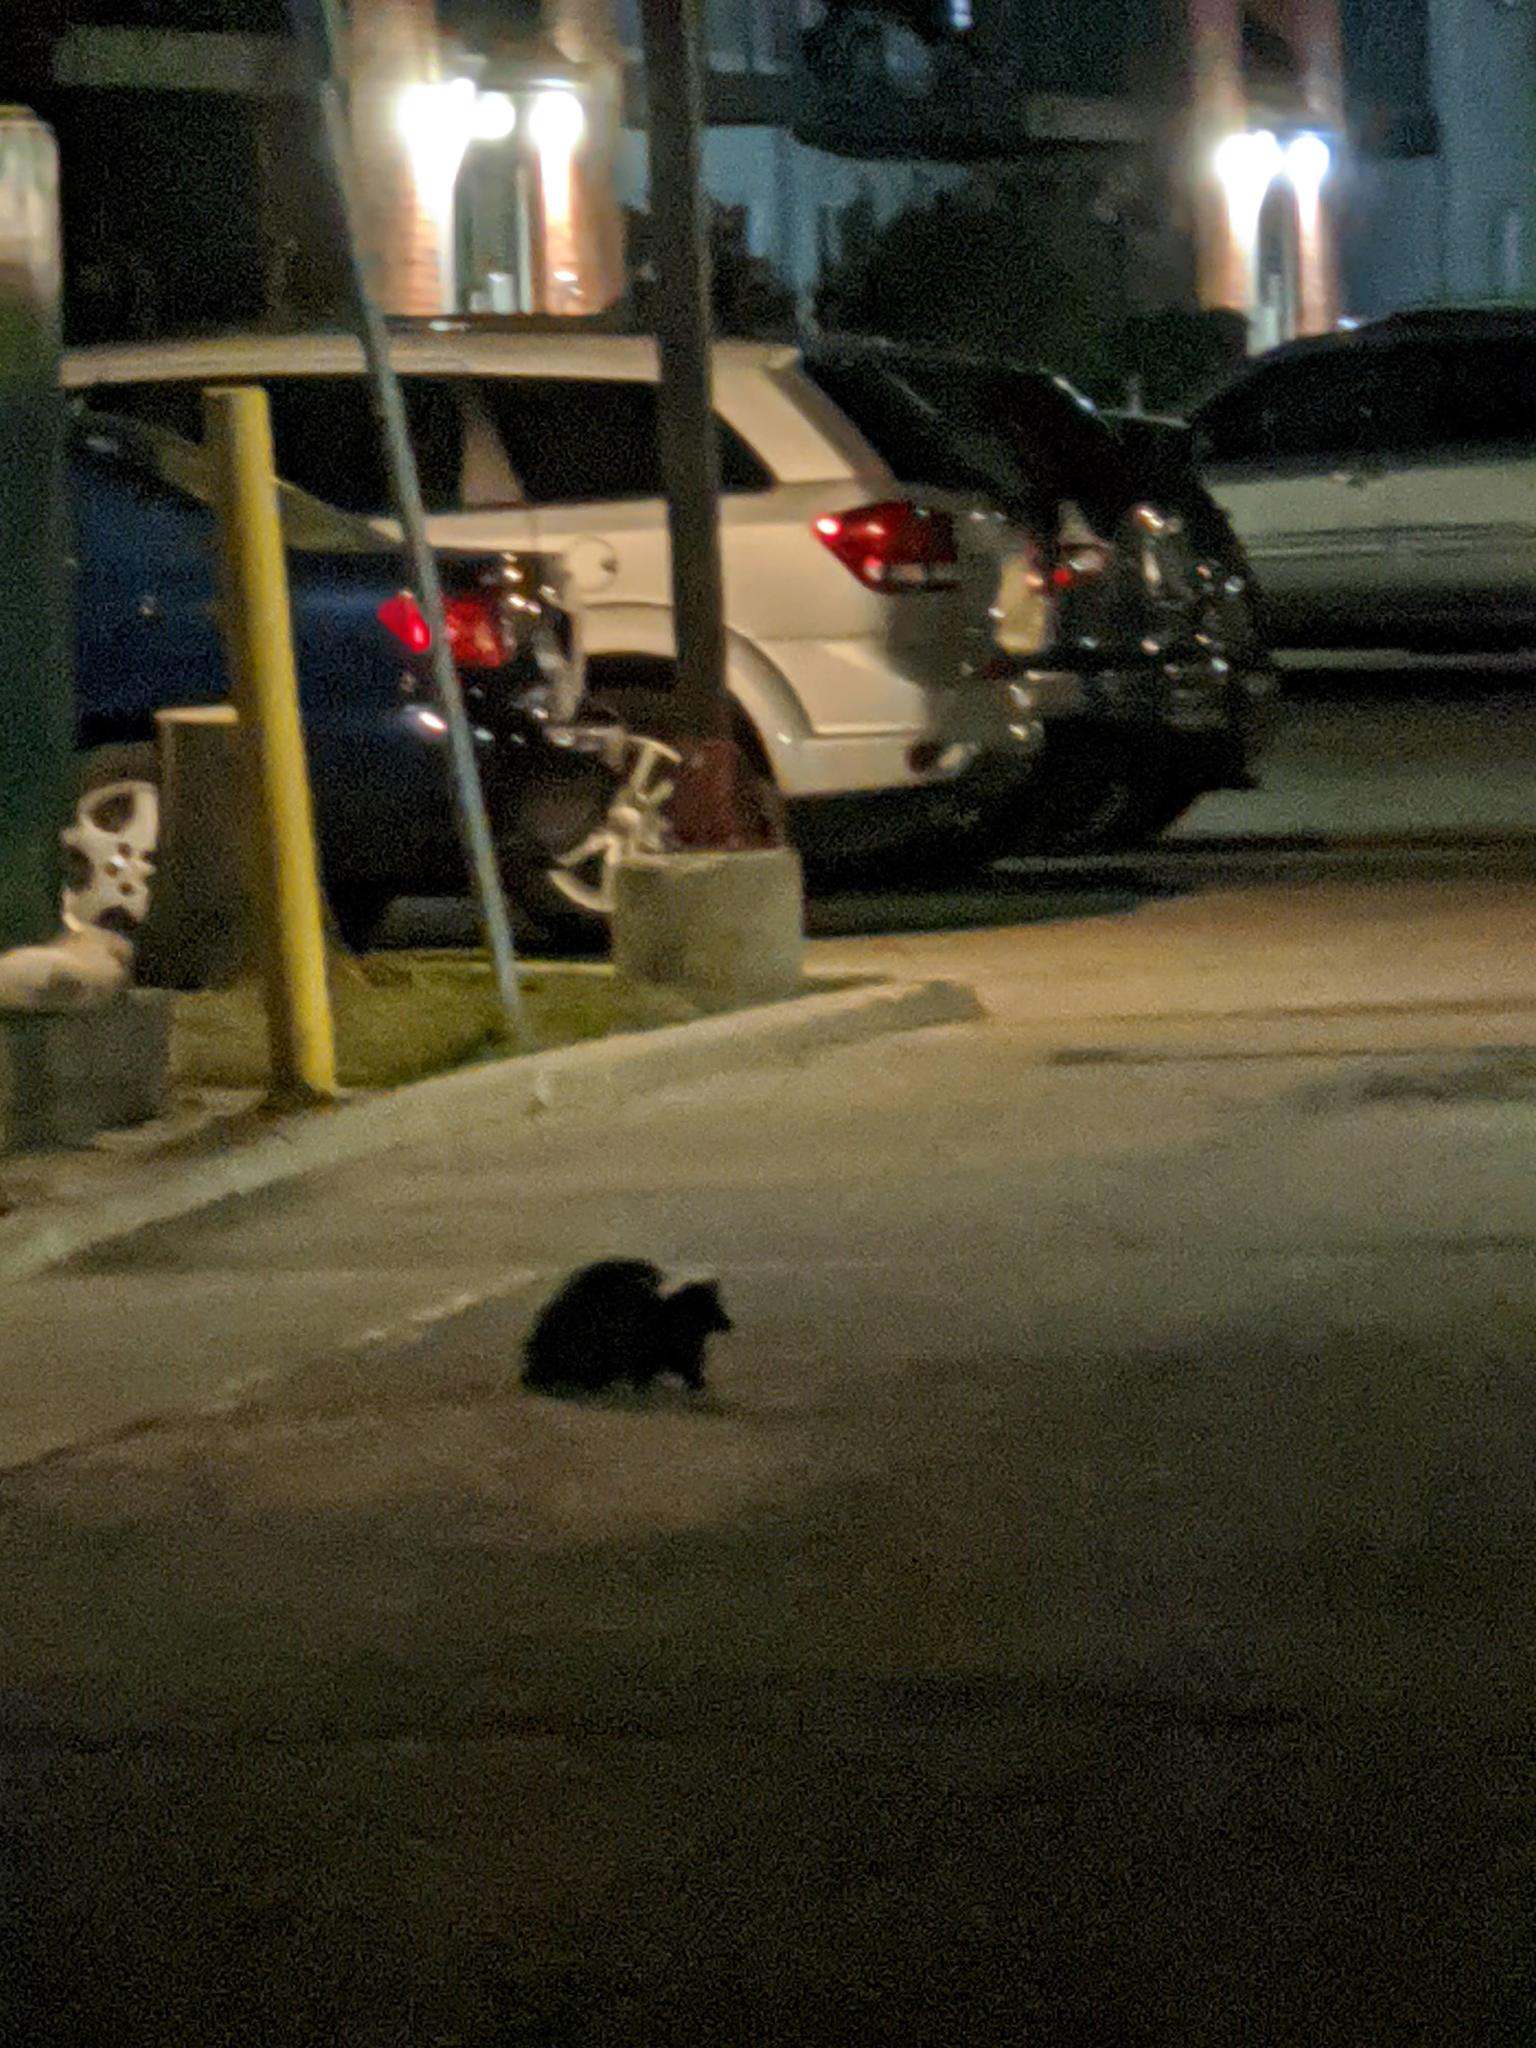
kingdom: Animalia
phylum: Chordata
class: Mammalia
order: Carnivora
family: Mephitidae
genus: Mephitis
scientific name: Mephitis mephitis
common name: Striped skunk
